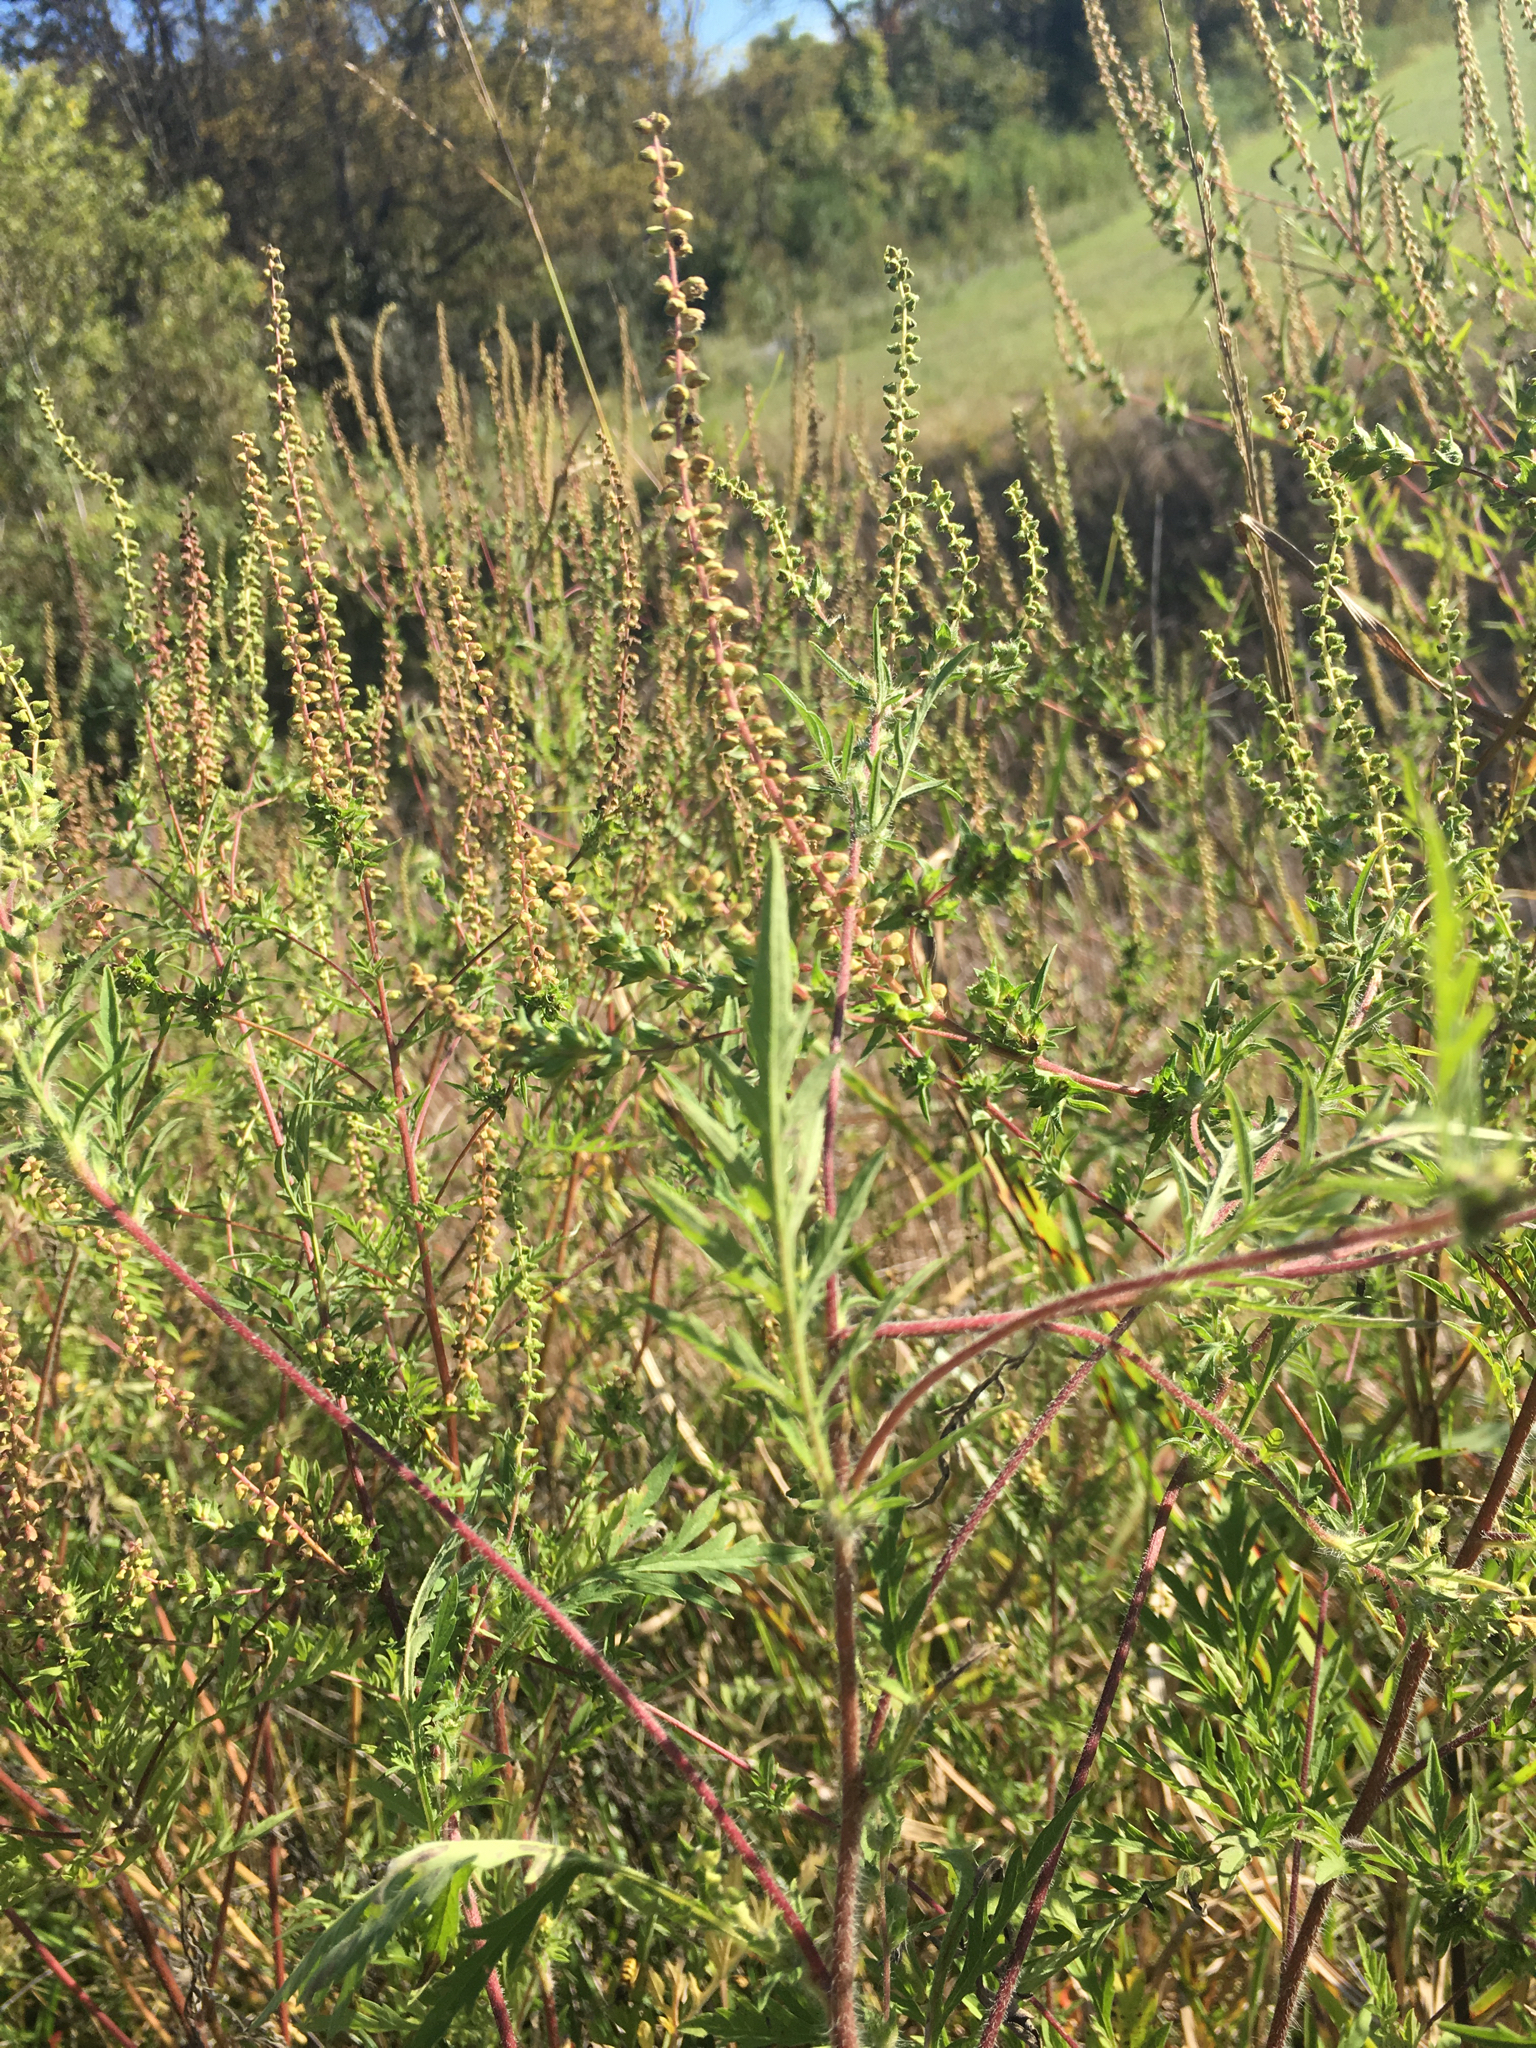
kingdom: Plantae
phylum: Tracheophyta
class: Magnoliopsida
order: Asterales
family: Asteraceae
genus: Ambrosia
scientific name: Ambrosia artemisiifolia
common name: Annual ragweed
